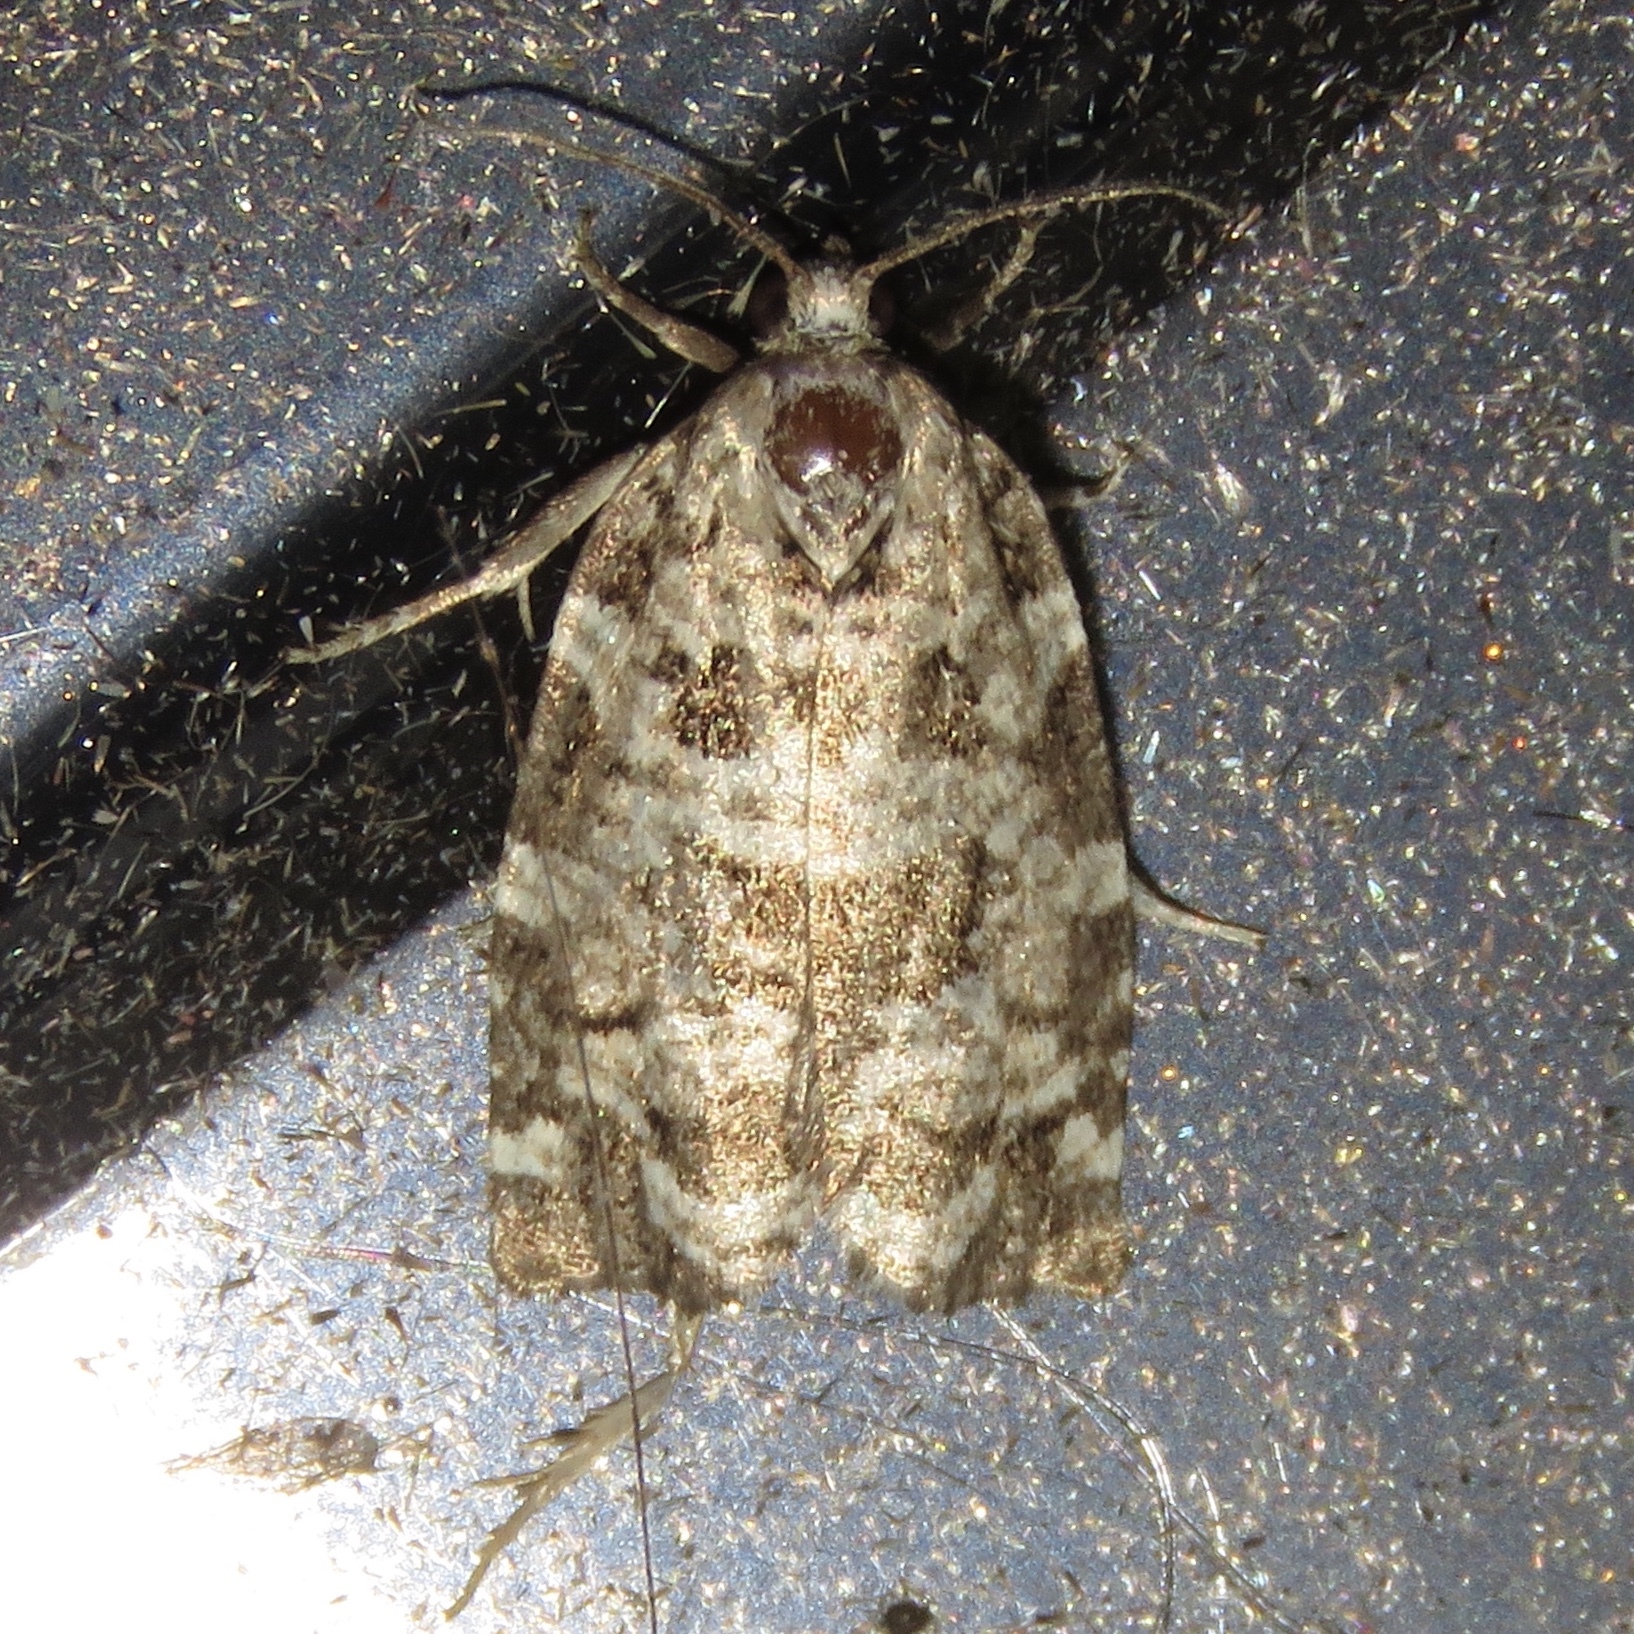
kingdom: Animalia
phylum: Arthropoda
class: Insecta
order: Lepidoptera
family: Tortricidae
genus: Archips
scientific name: Archips packardiana
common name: Spring spruce needle moth
